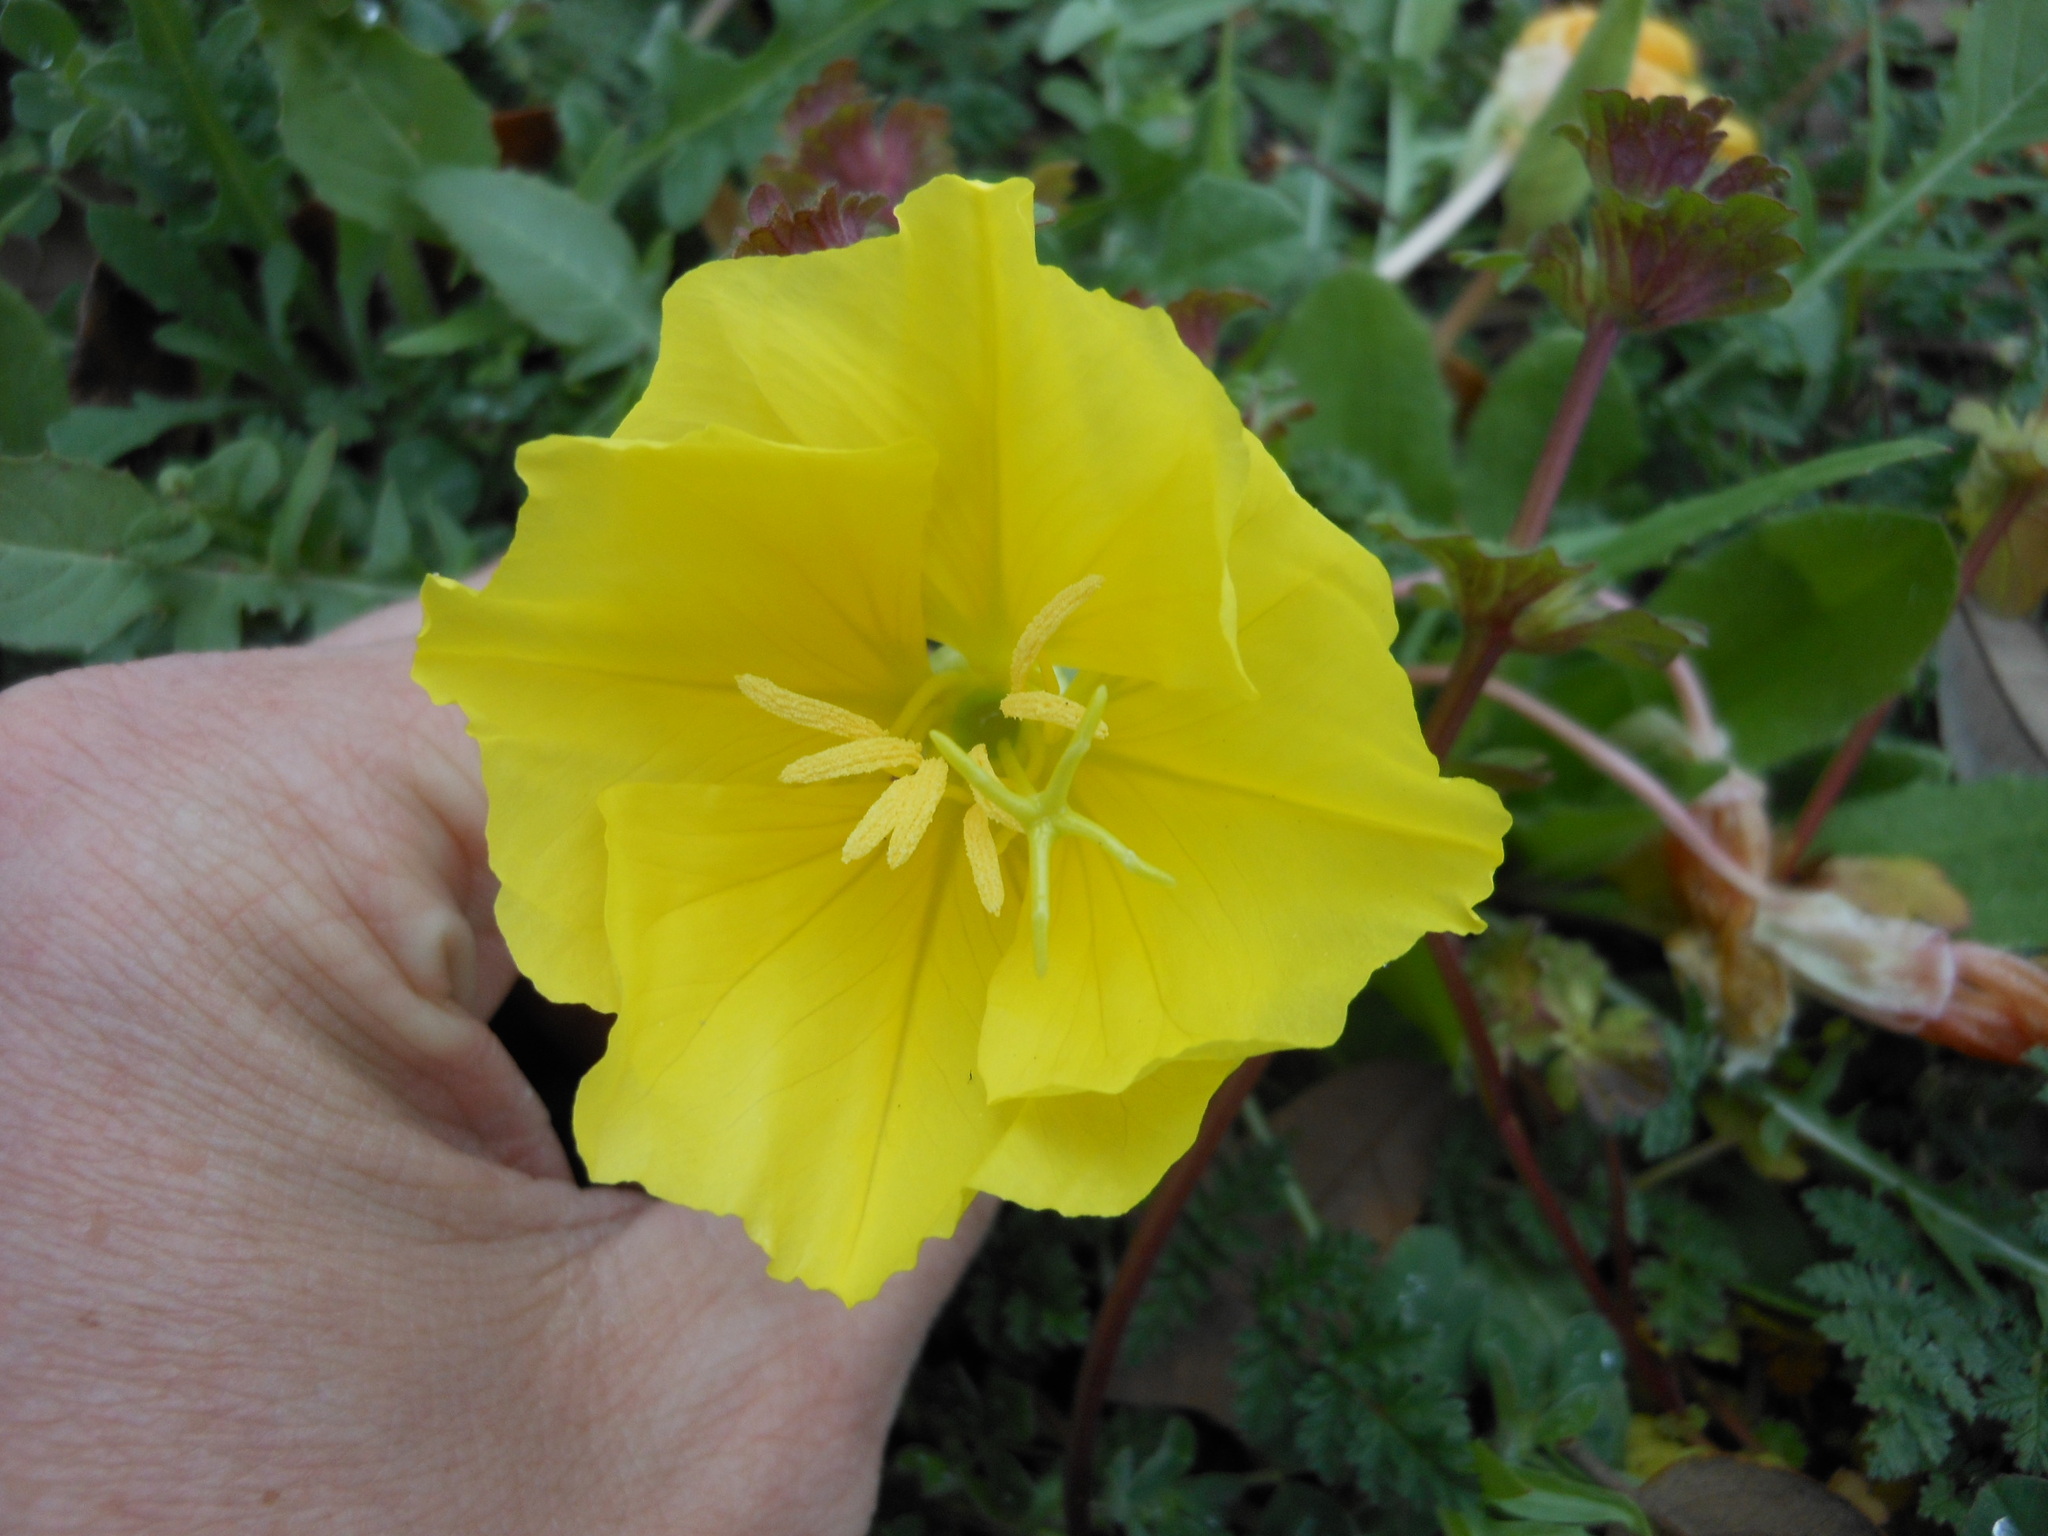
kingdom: Plantae
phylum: Tracheophyta
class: Magnoliopsida
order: Myrtales
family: Onagraceae
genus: Oenothera
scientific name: Oenothera triloba
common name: Sessile evening-primrose
